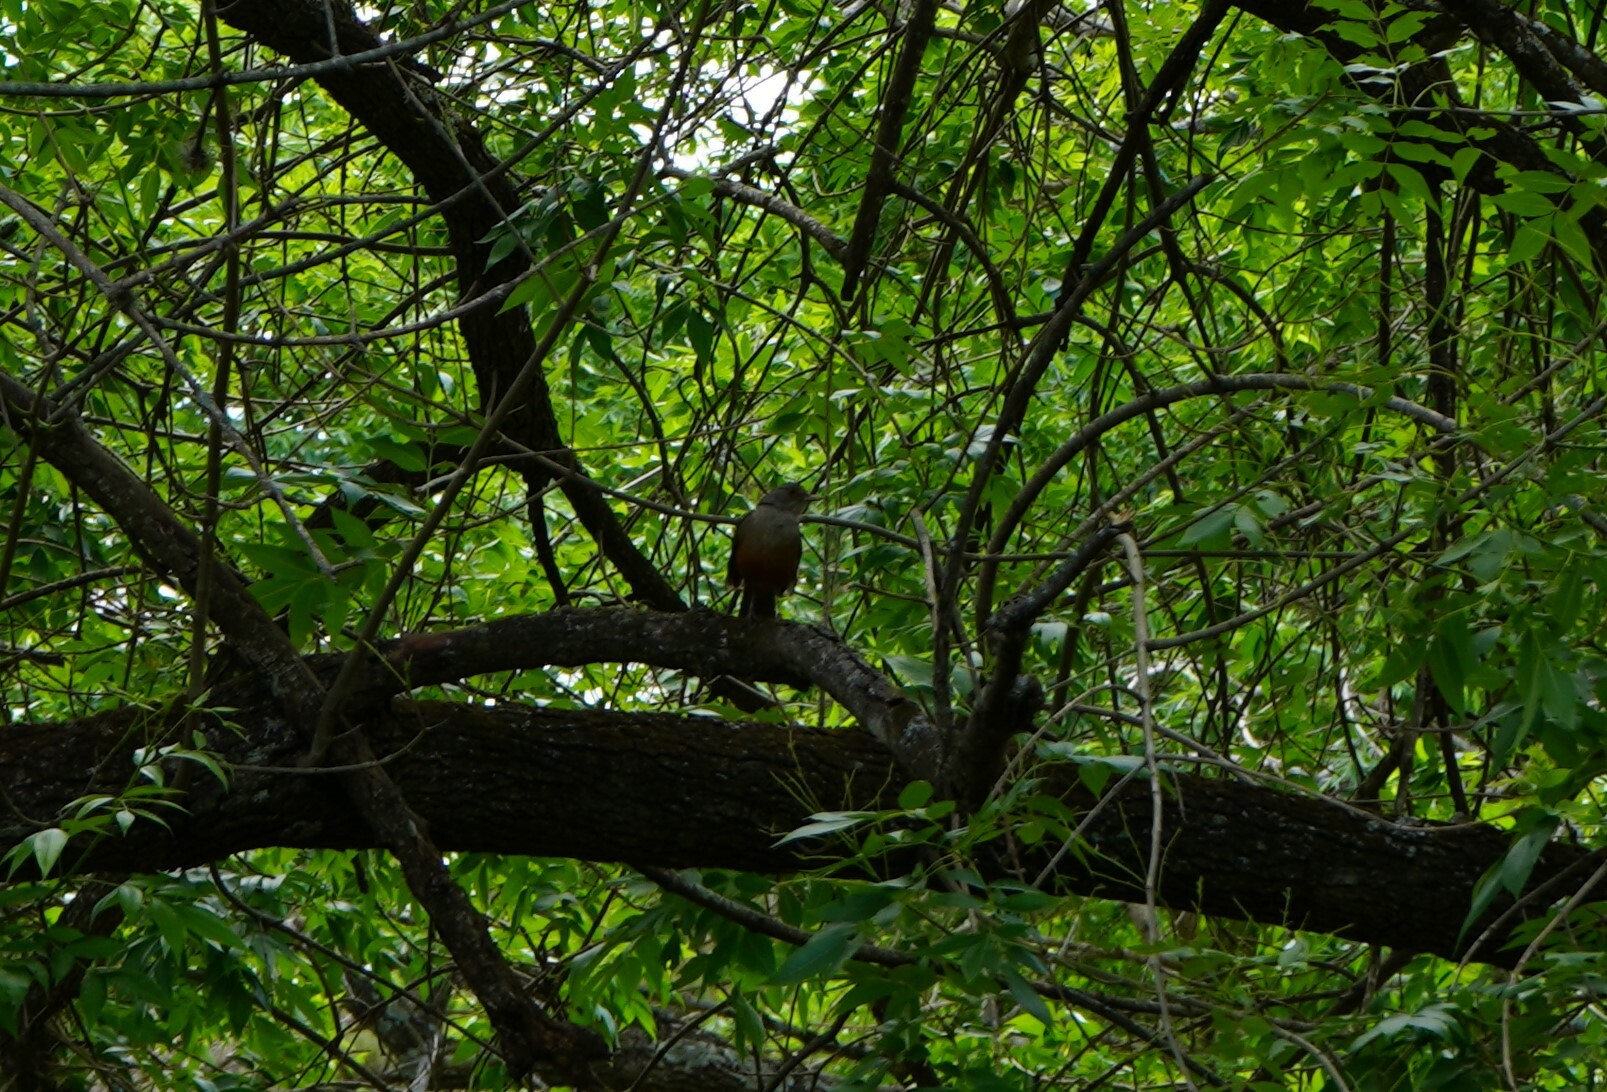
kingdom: Animalia
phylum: Chordata
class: Aves
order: Passeriformes
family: Turdidae
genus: Turdus
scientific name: Turdus rufiventris
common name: Rufous-bellied thrush
